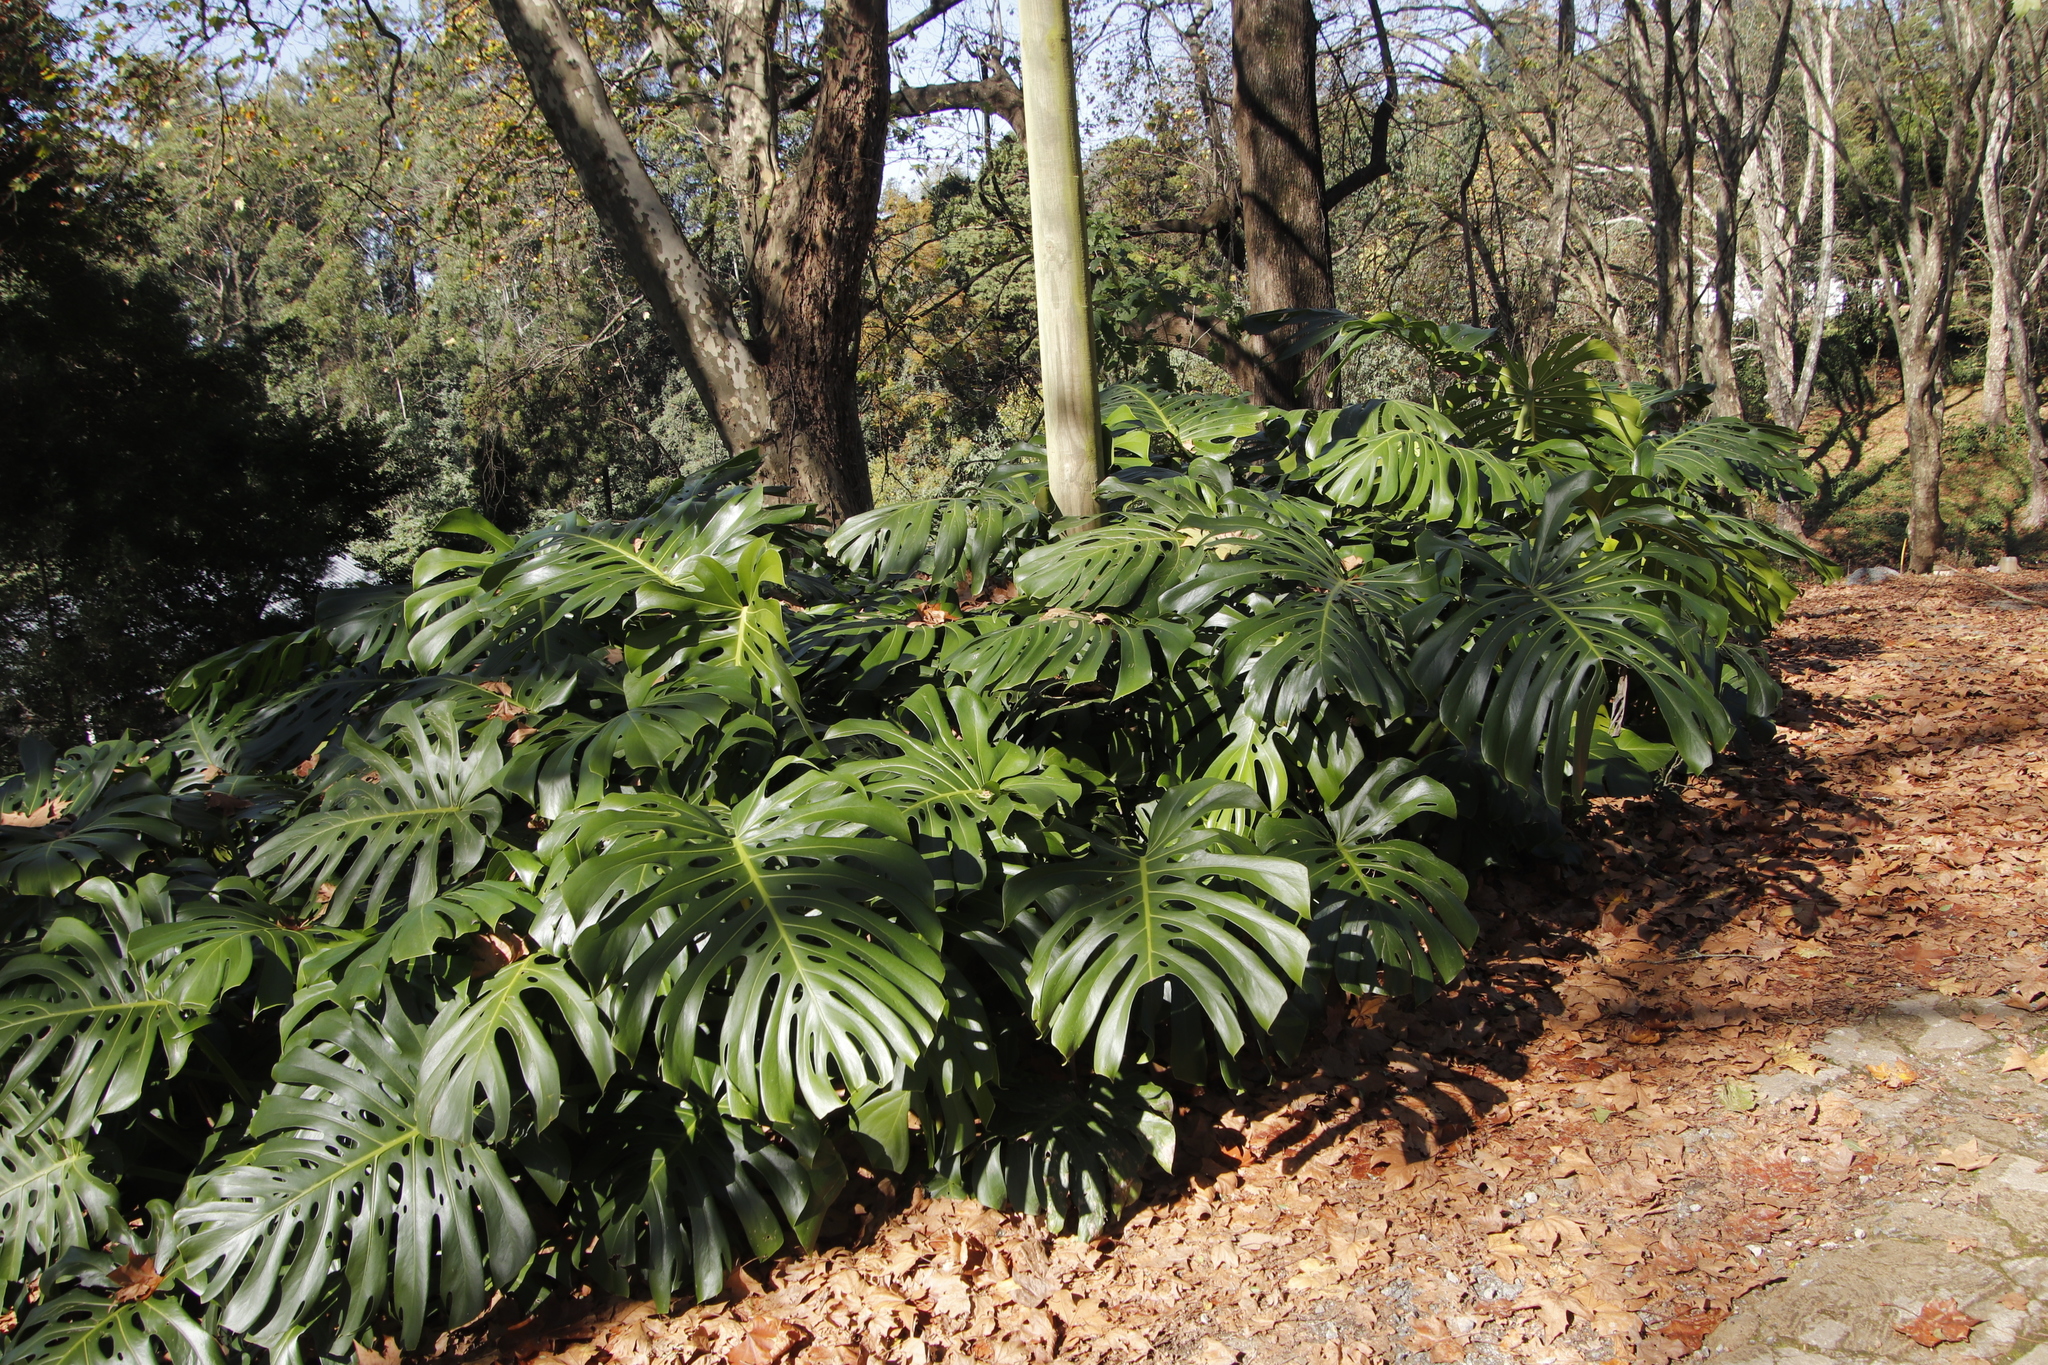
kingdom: Plantae
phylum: Tracheophyta
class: Liliopsida
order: Alismatales
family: Araceae
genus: Monstera
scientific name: Monstera deliciosa
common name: Cut-leaf-philodendron
